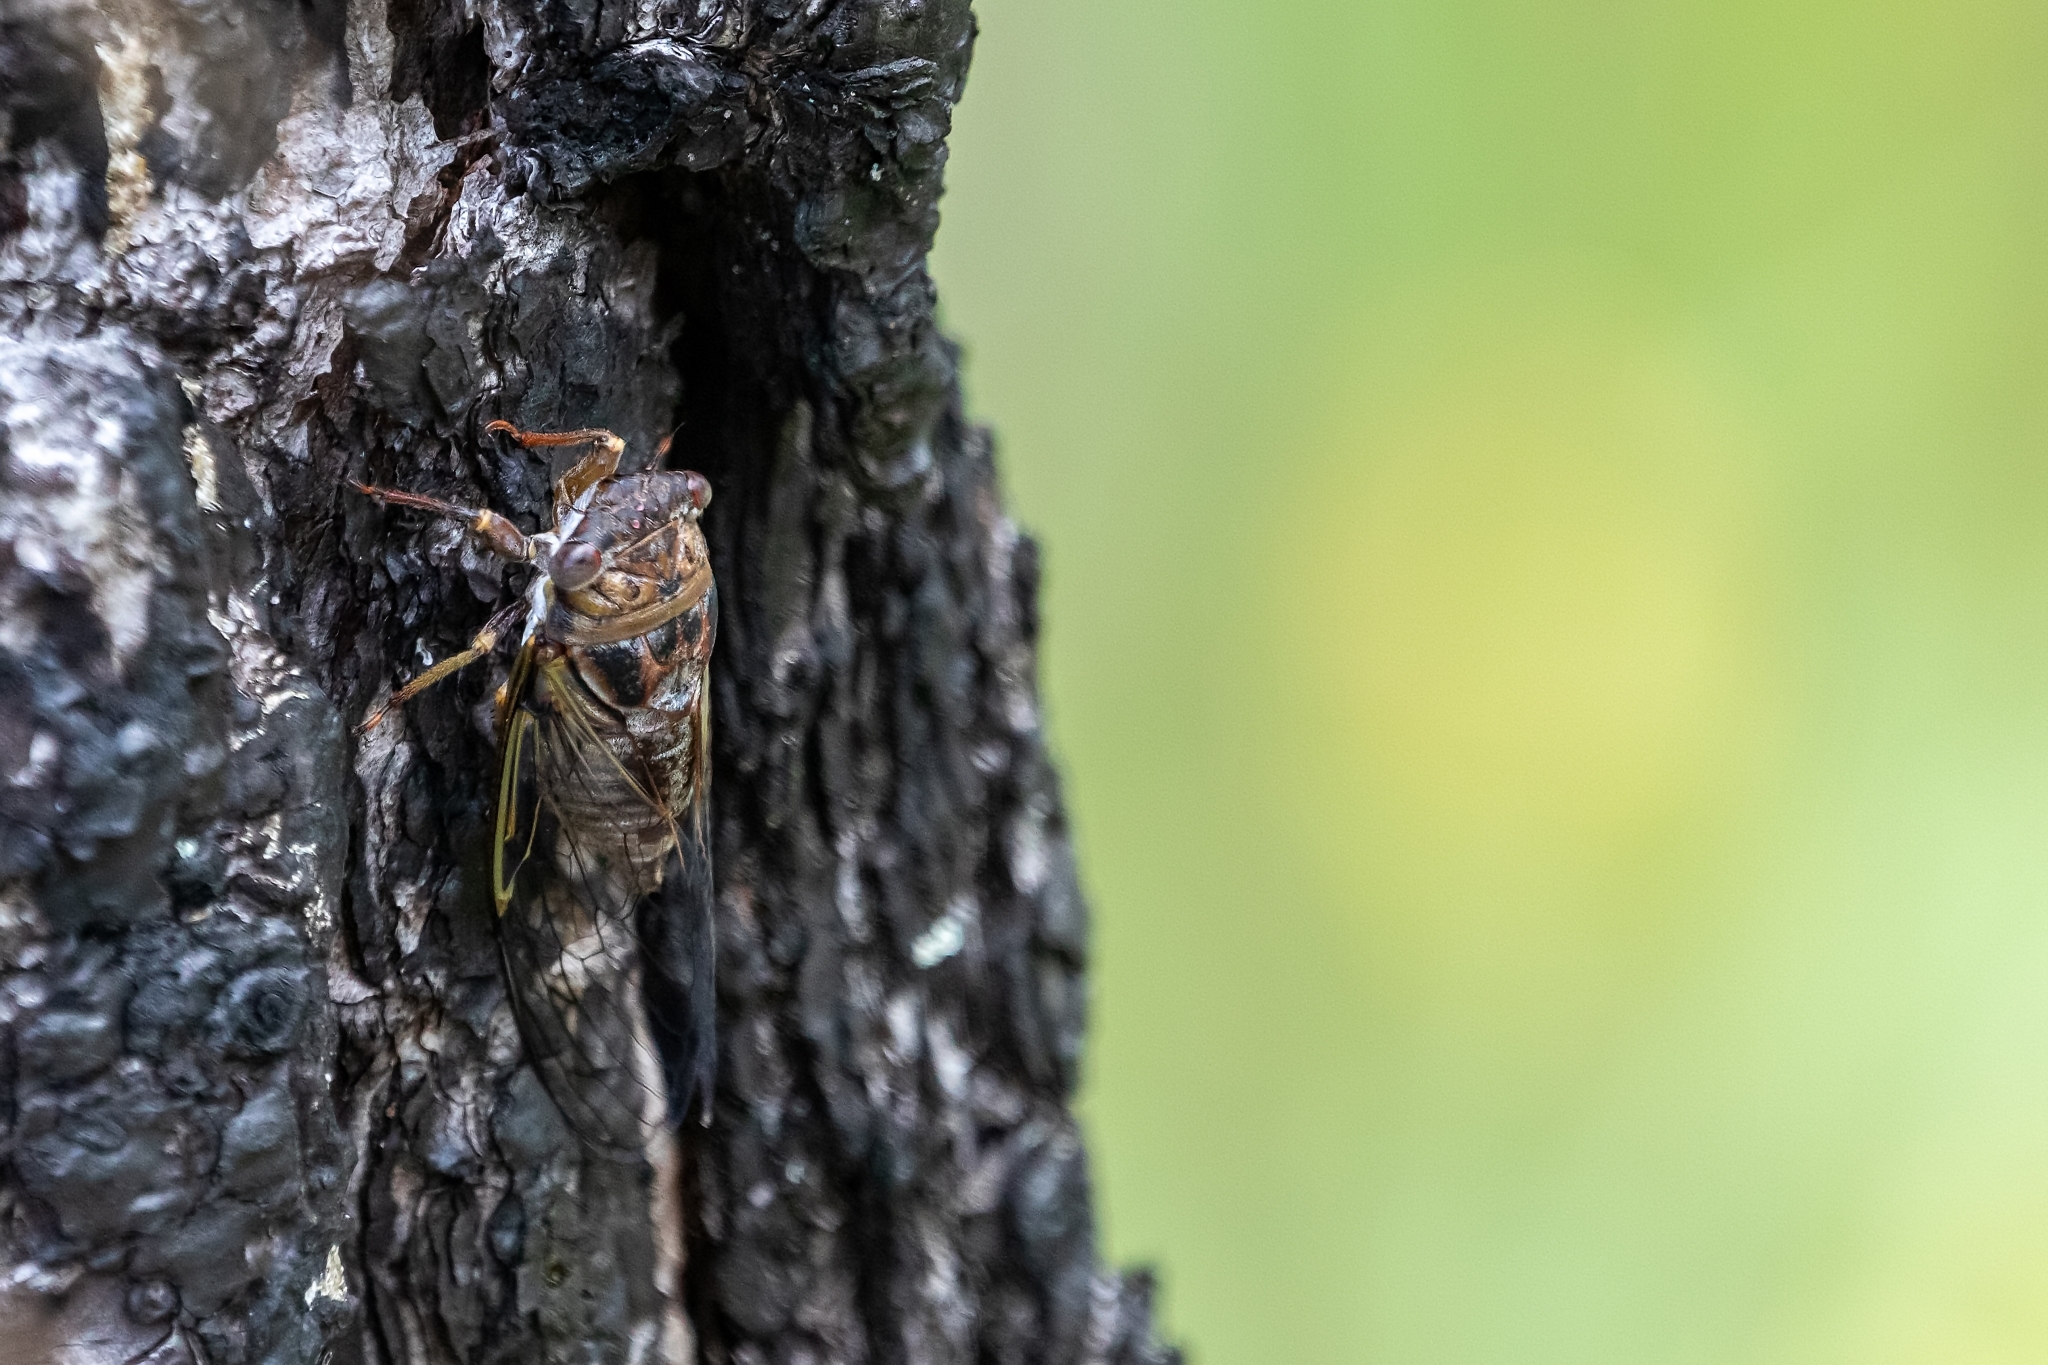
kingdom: Animalia
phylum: Arthropoda
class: Insecta
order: Hemiptera
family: Cicadidae
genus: Diceroprocta
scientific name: Diceroprocta olympusa
